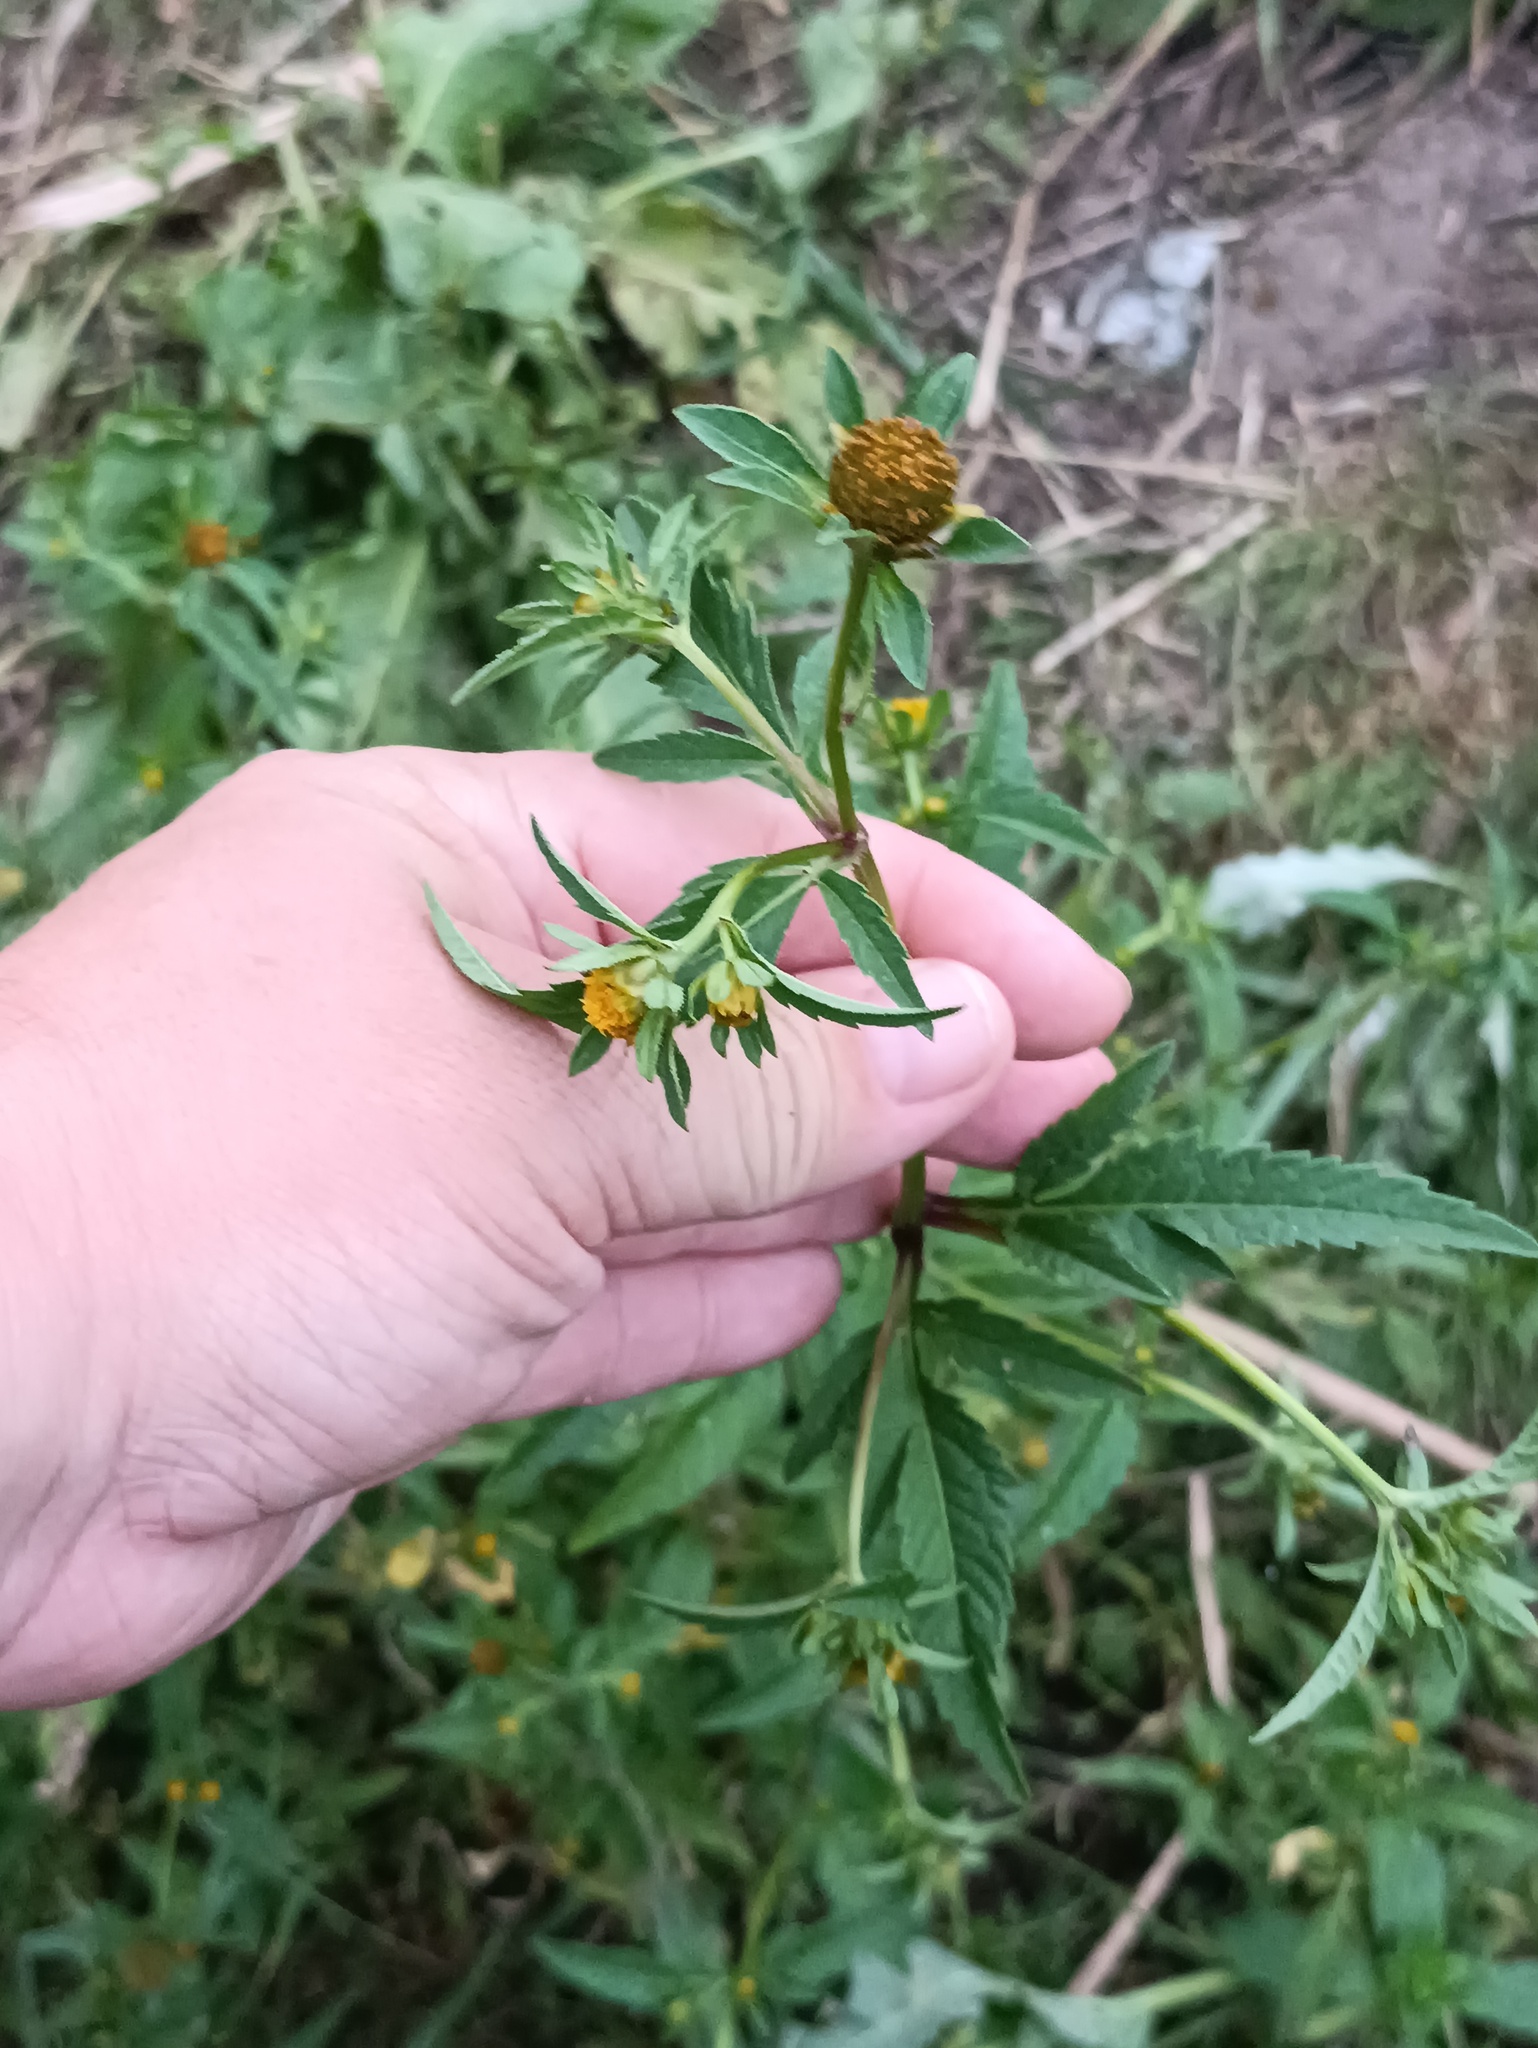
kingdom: Plantae
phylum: Tracheophyta
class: Magnoliopsida
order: Asterales
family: Asteraceae
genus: Bidens
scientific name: Bidens tripartita
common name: Trifid bur-marigold
